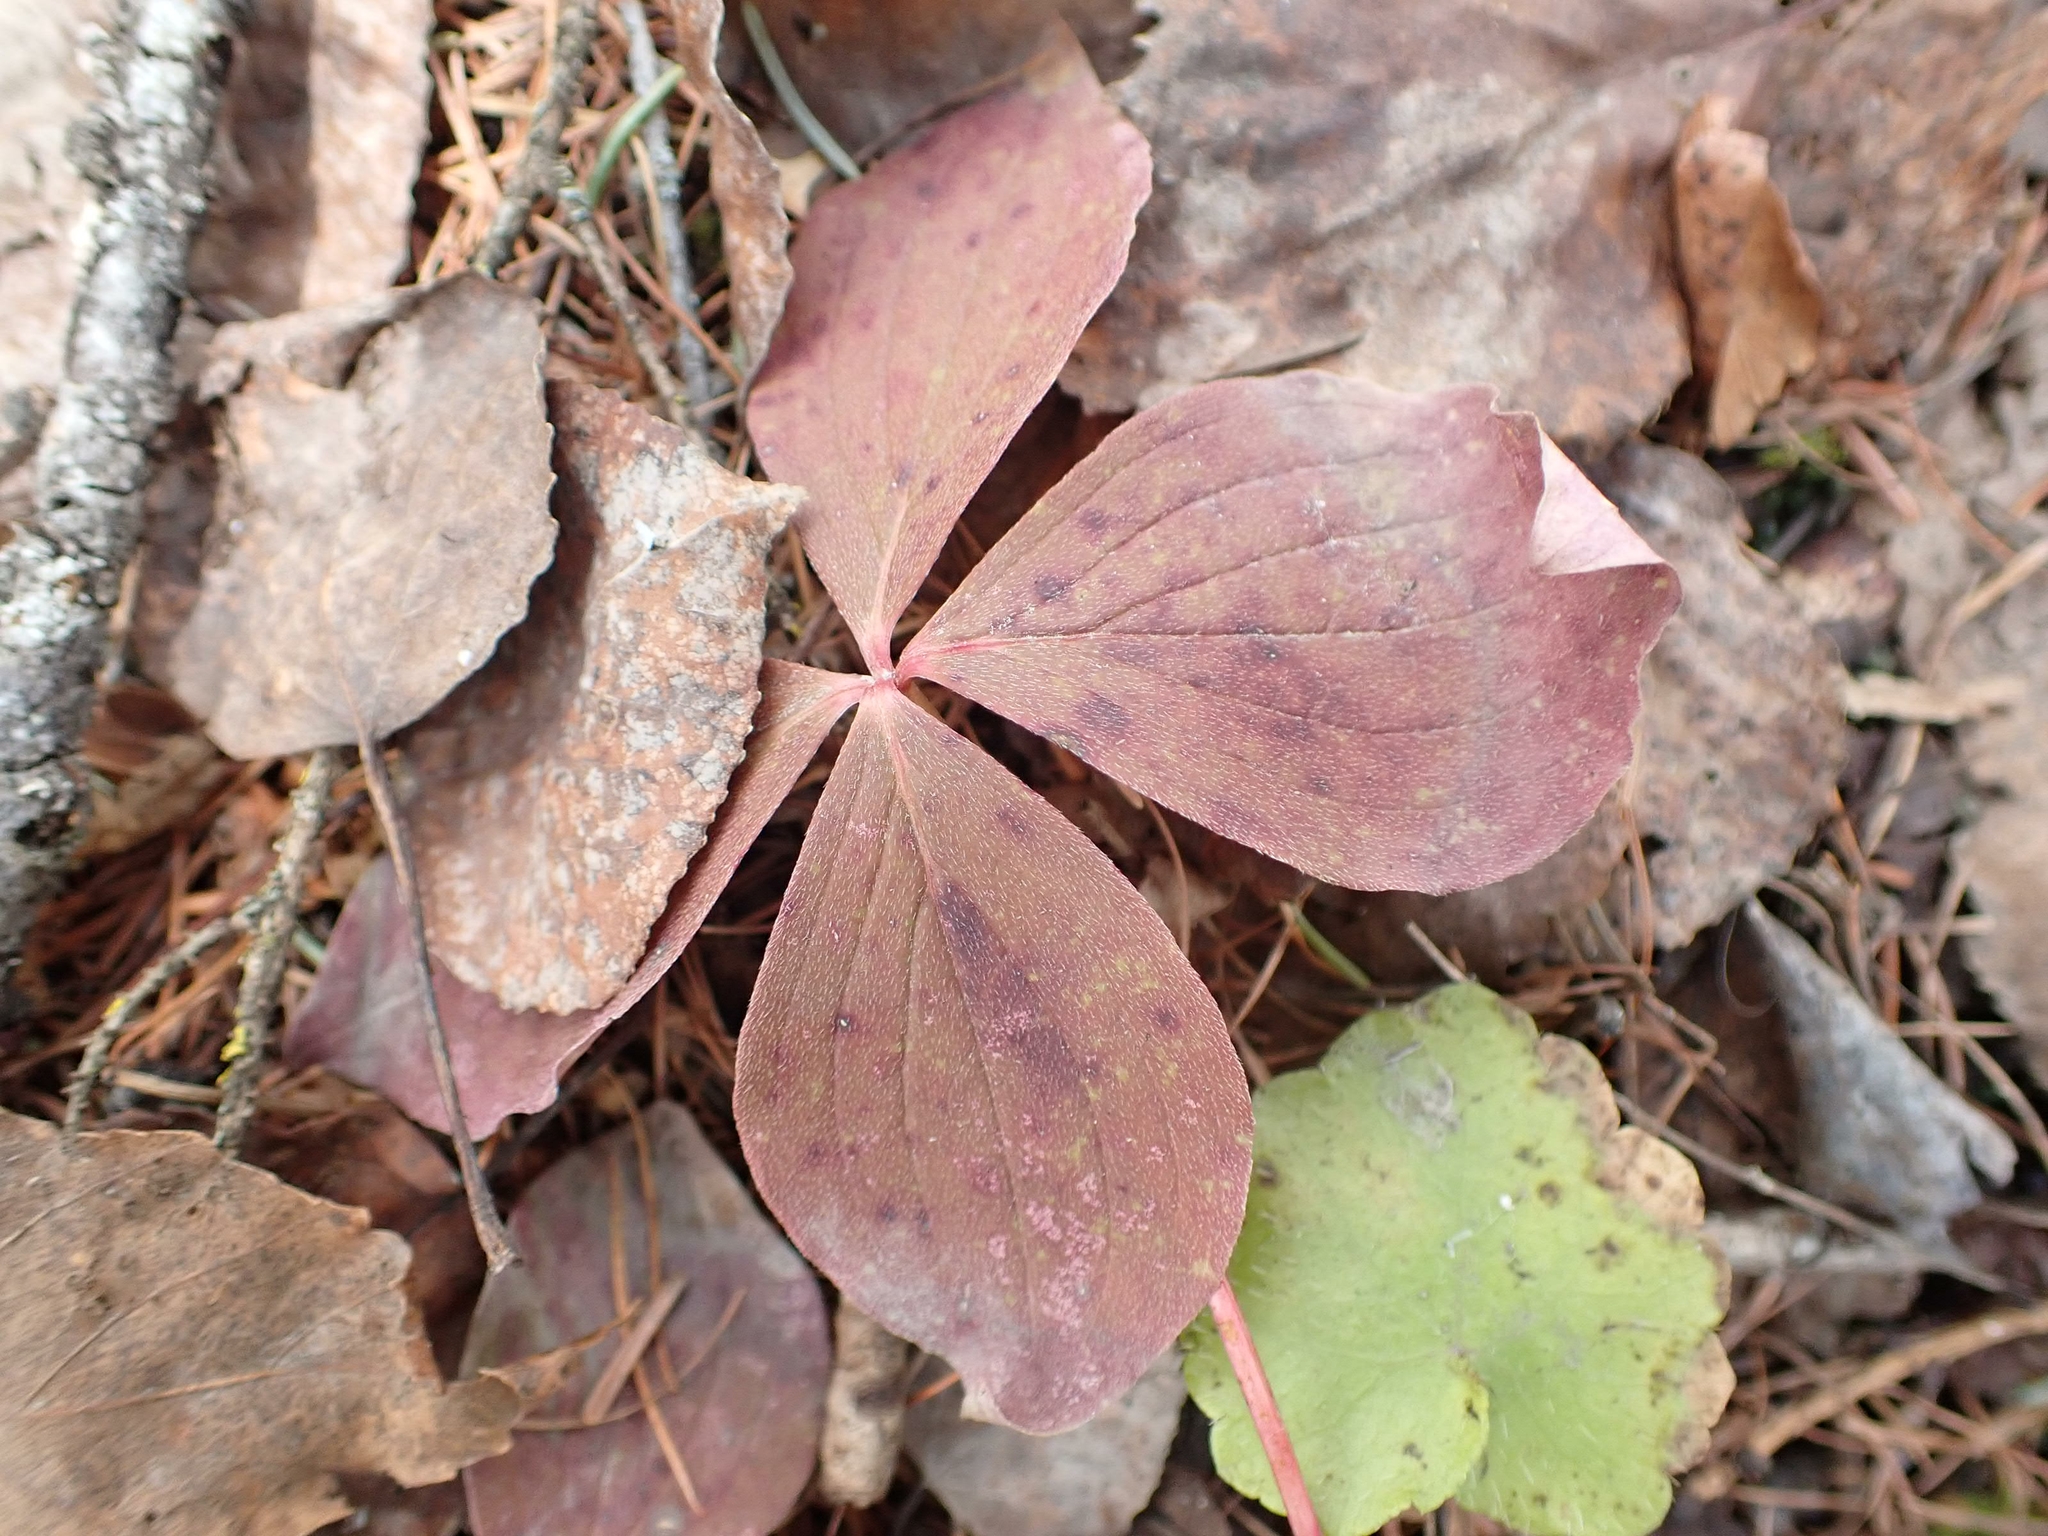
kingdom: Plantae
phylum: Tracheophyta
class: Magnoliopsida
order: Cornales
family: Cornaceae
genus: Cornus
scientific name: Cornus canadensis
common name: Creeping dogwood
